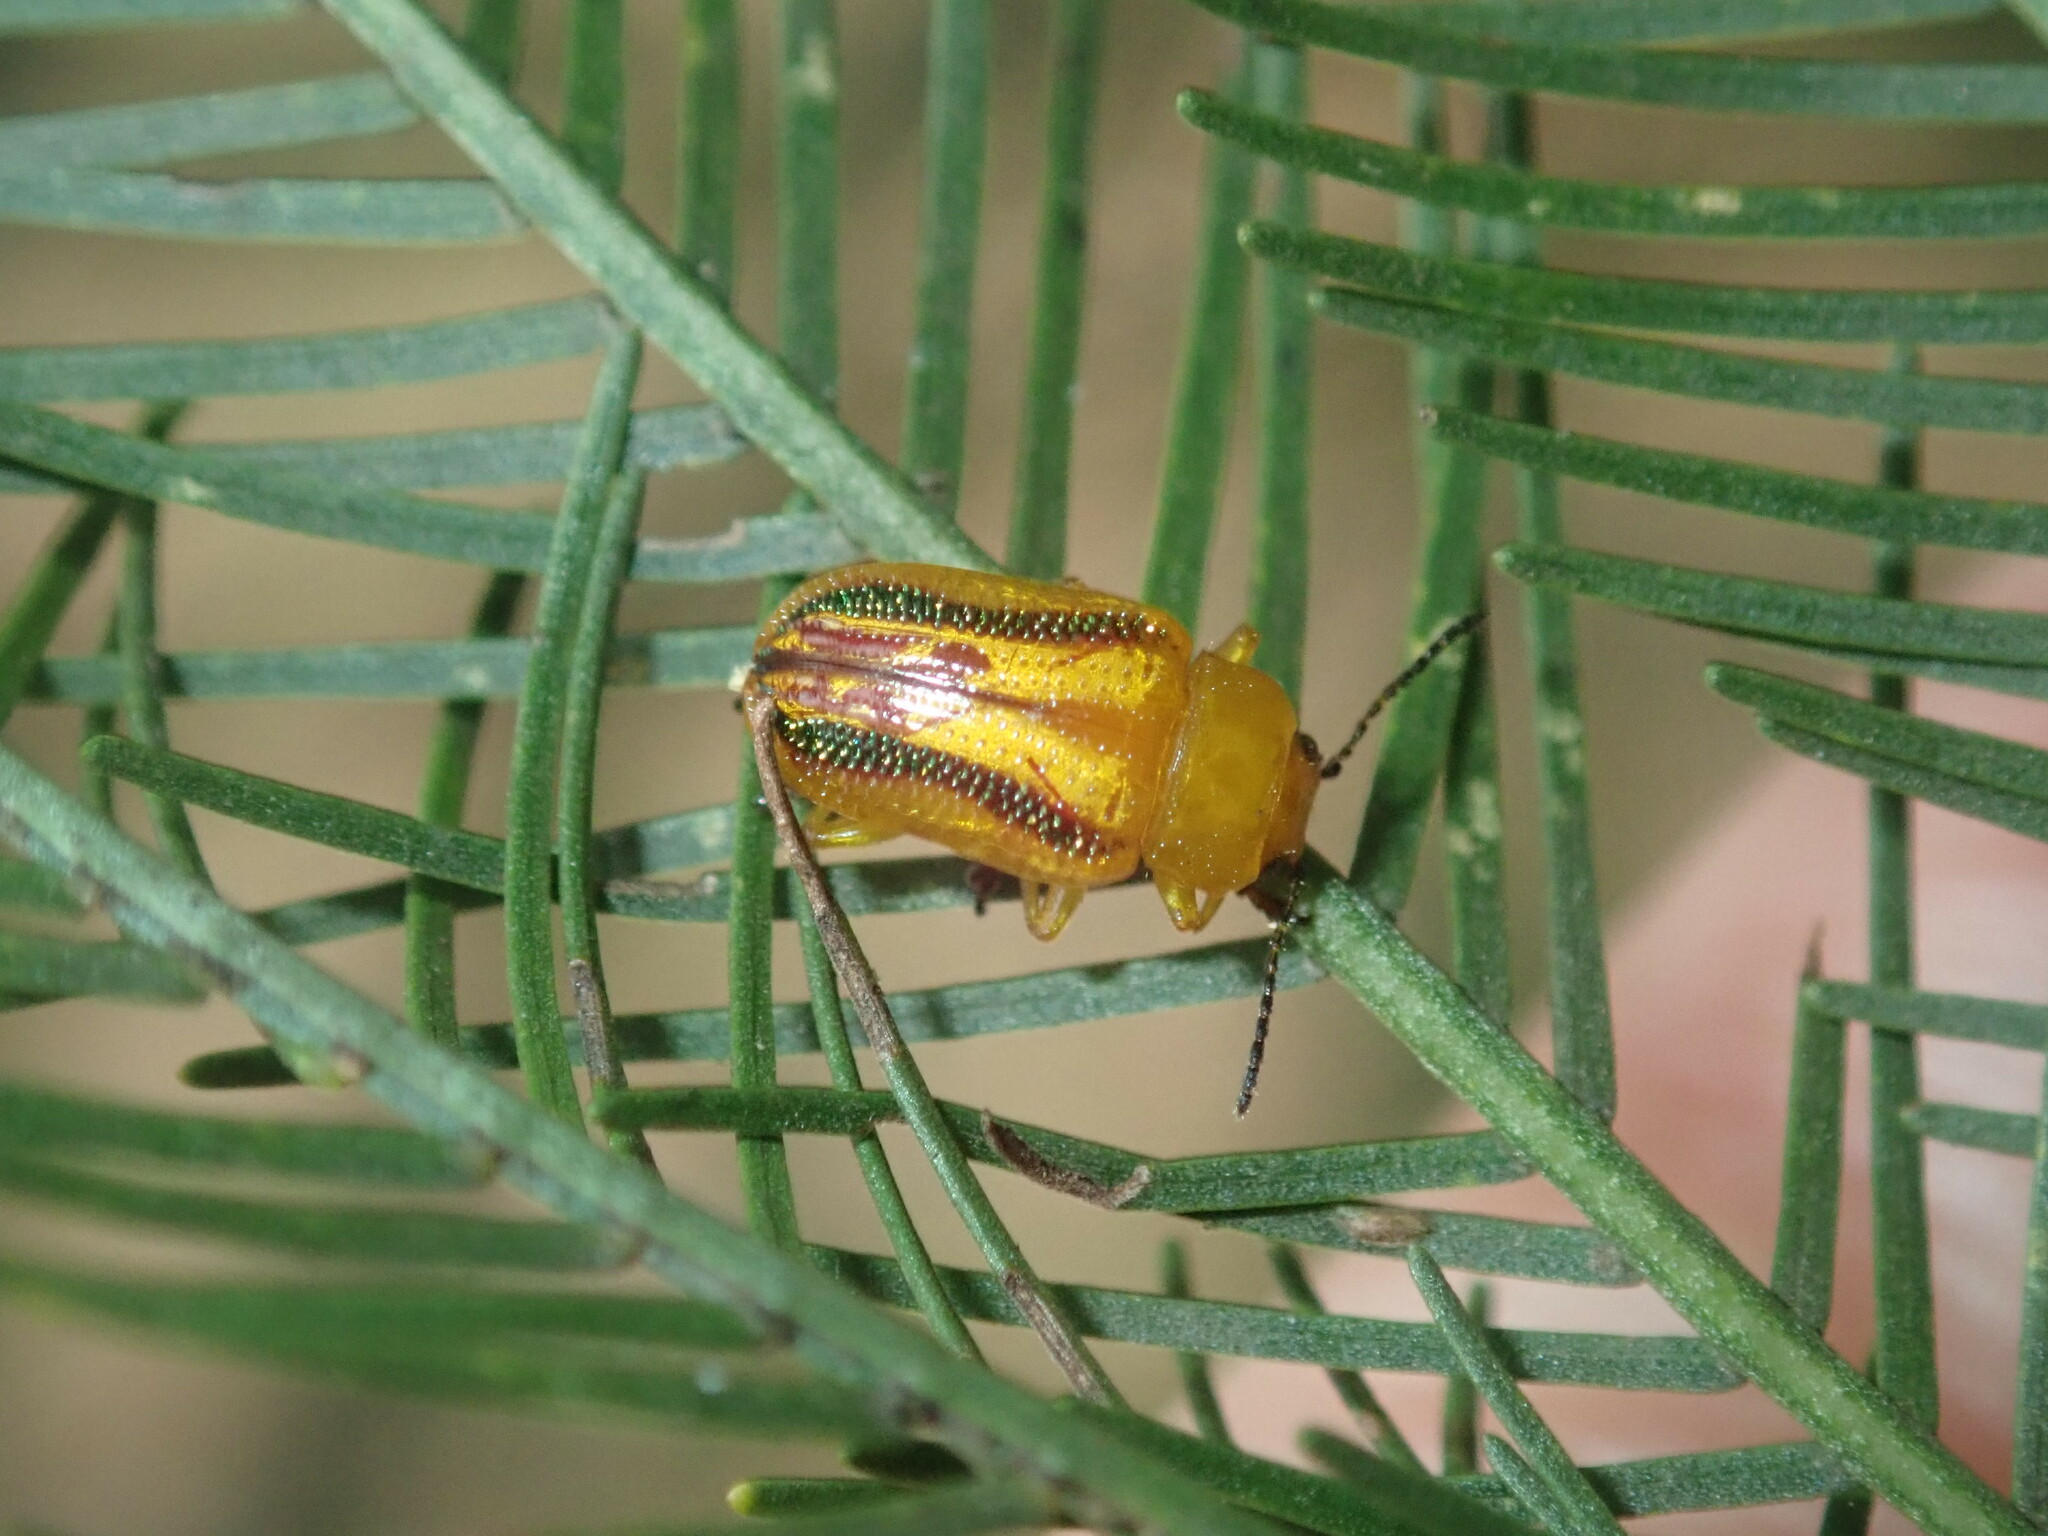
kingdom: Animalia
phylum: Arthropoda
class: Insecta
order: Coleoptera
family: Chrysomelidae
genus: Calomela
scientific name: Calomela
